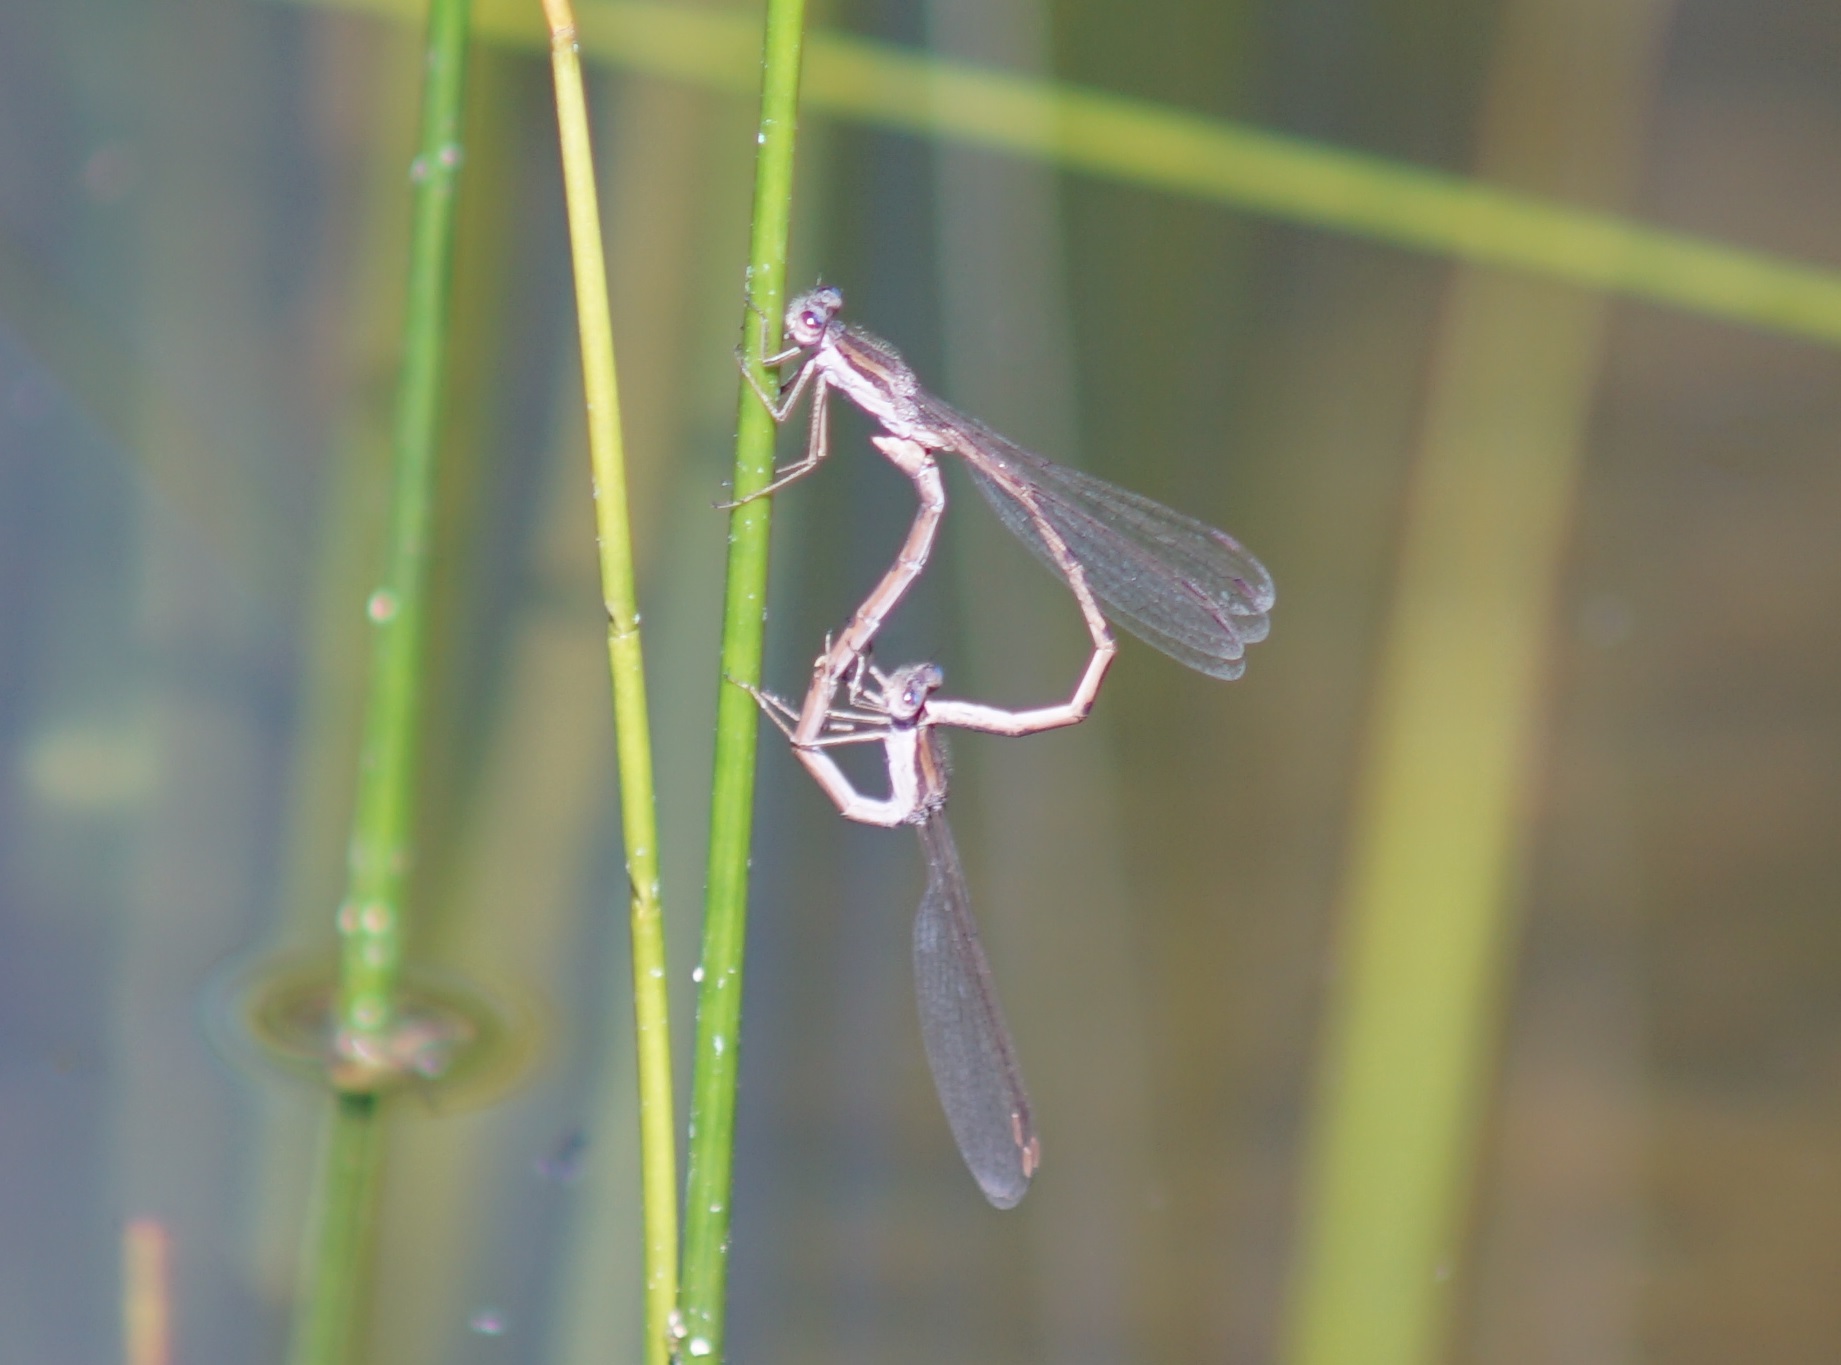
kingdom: Animalia
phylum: Arthropoda
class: Insecta
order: Odonata
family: Lestidae
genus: Sympecma
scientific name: Sympecma fusca
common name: Common winter damsel
